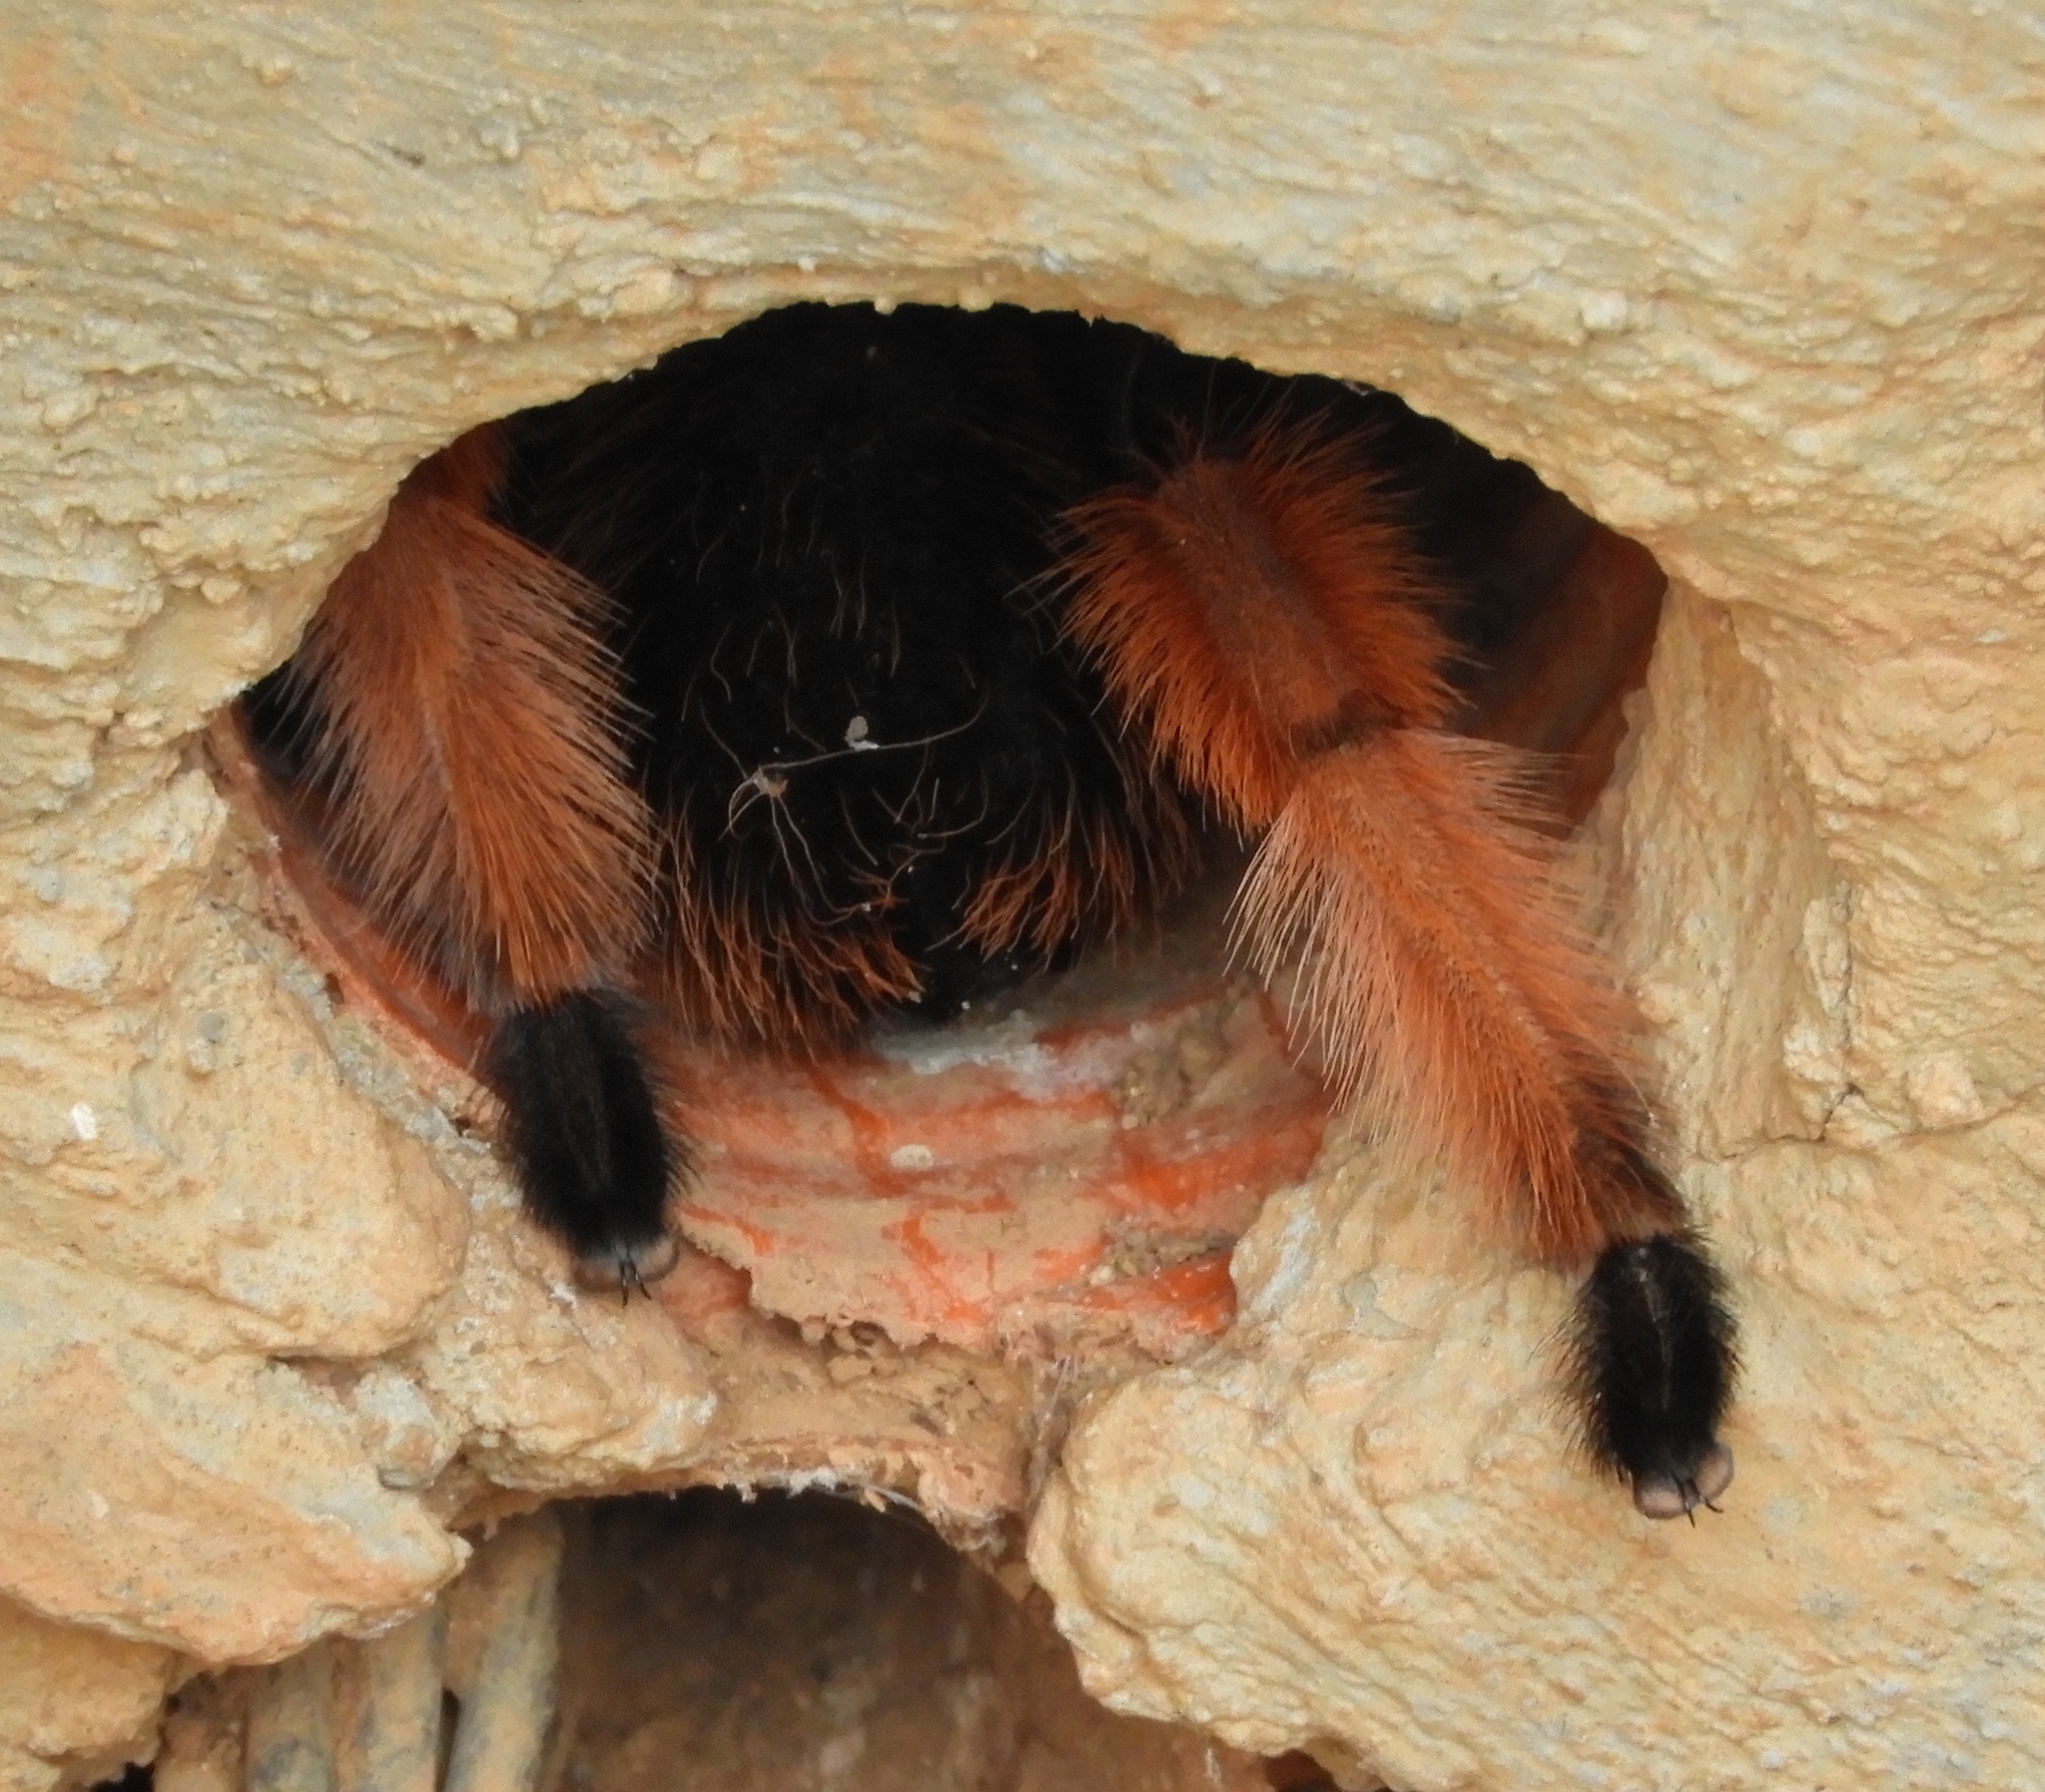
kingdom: Animalia
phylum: Arthropoda
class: Arachnida
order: Araneae
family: Theraphosidae
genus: Brachypelma
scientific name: Brachypelma emilia
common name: Mexican redleg
